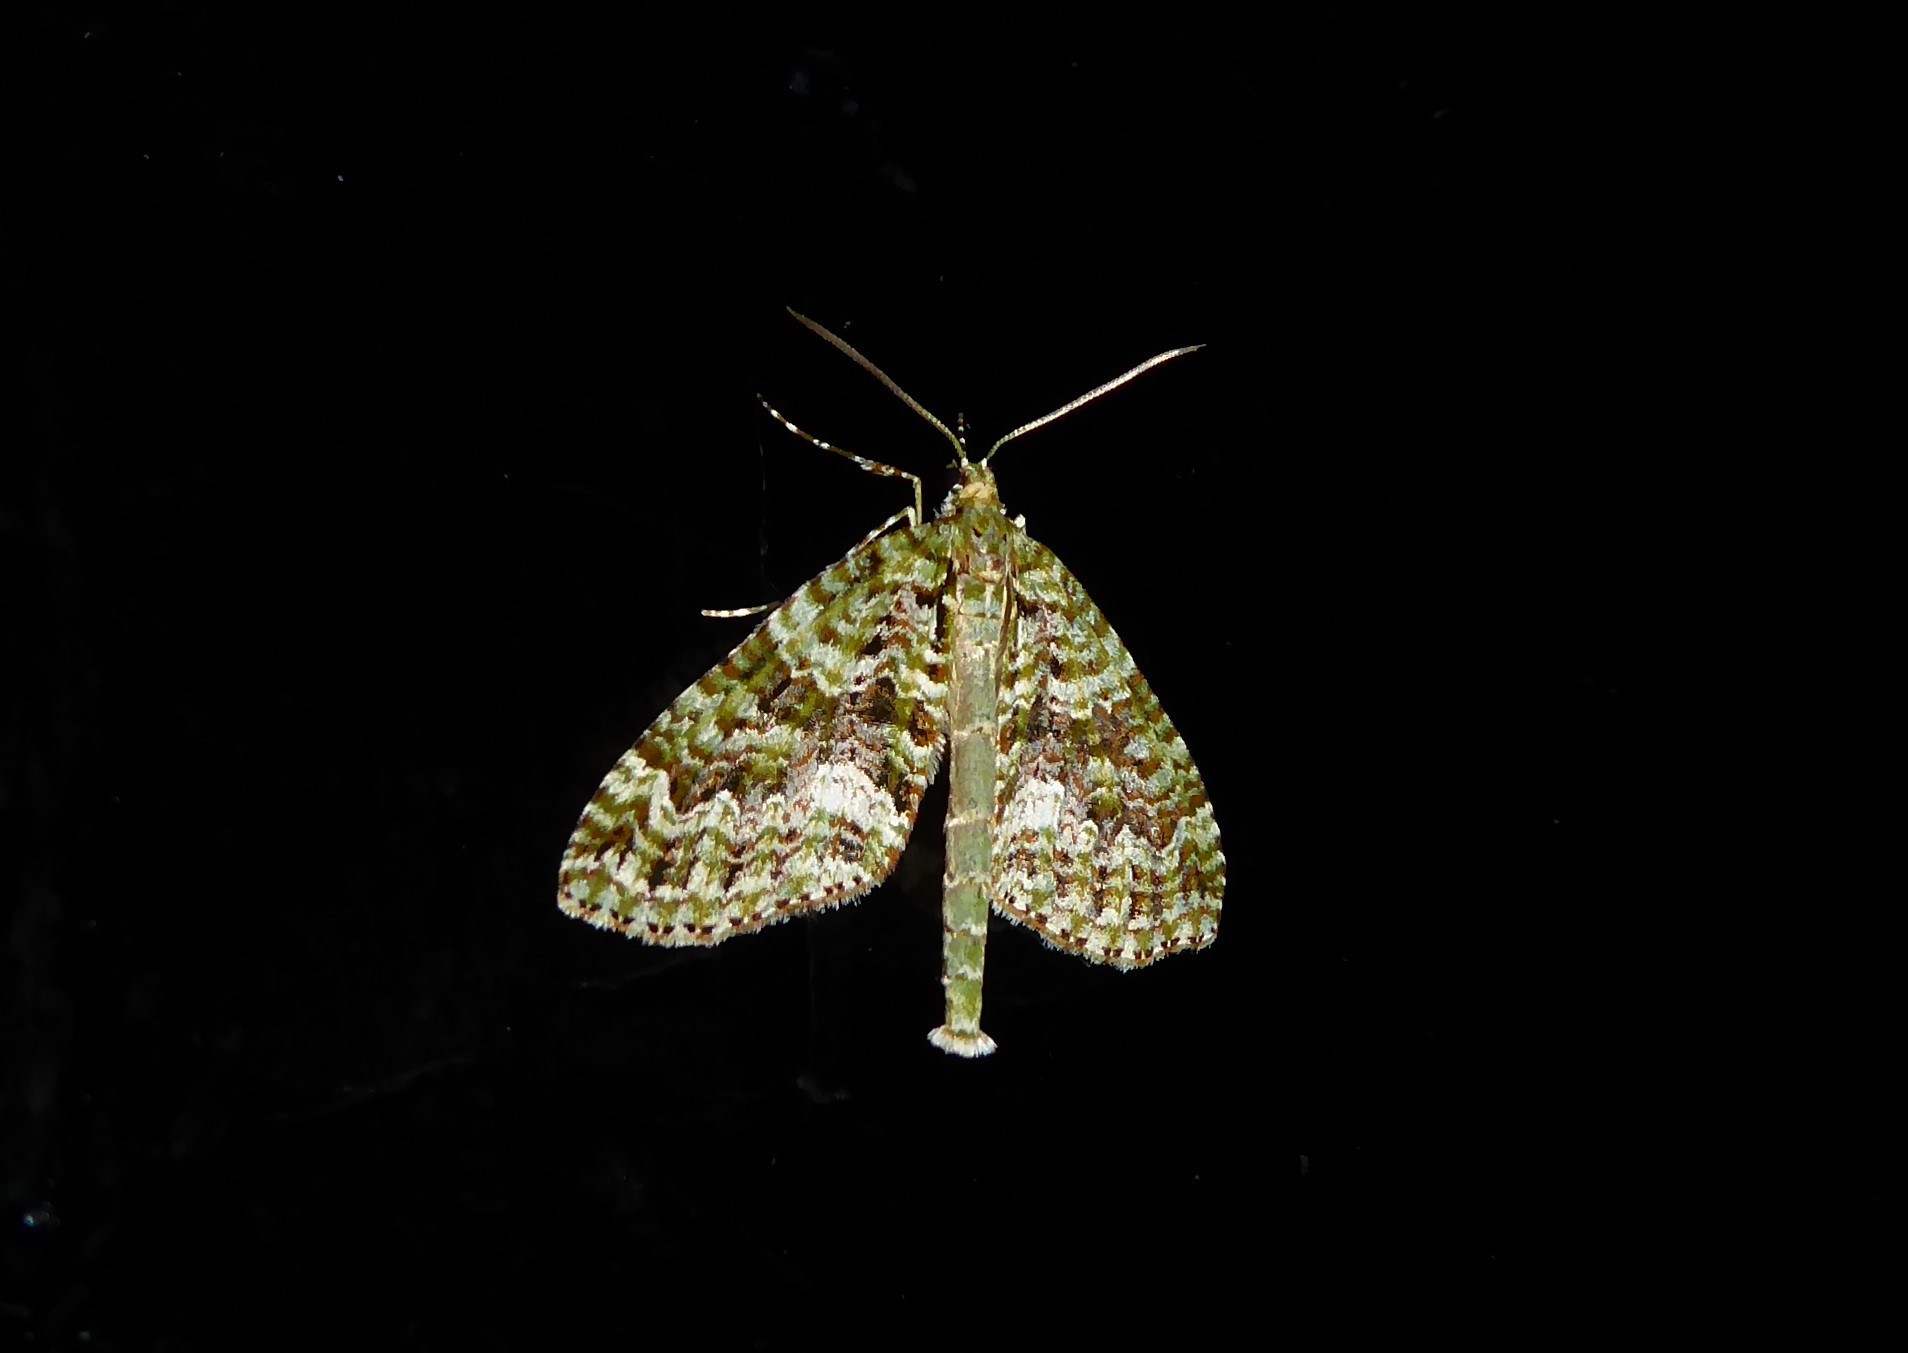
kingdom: Animalia
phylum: Arthropoda
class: Insecta
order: Lepidoptera
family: Geometridae
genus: Tatosoma
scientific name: Tatosoma agrionata
